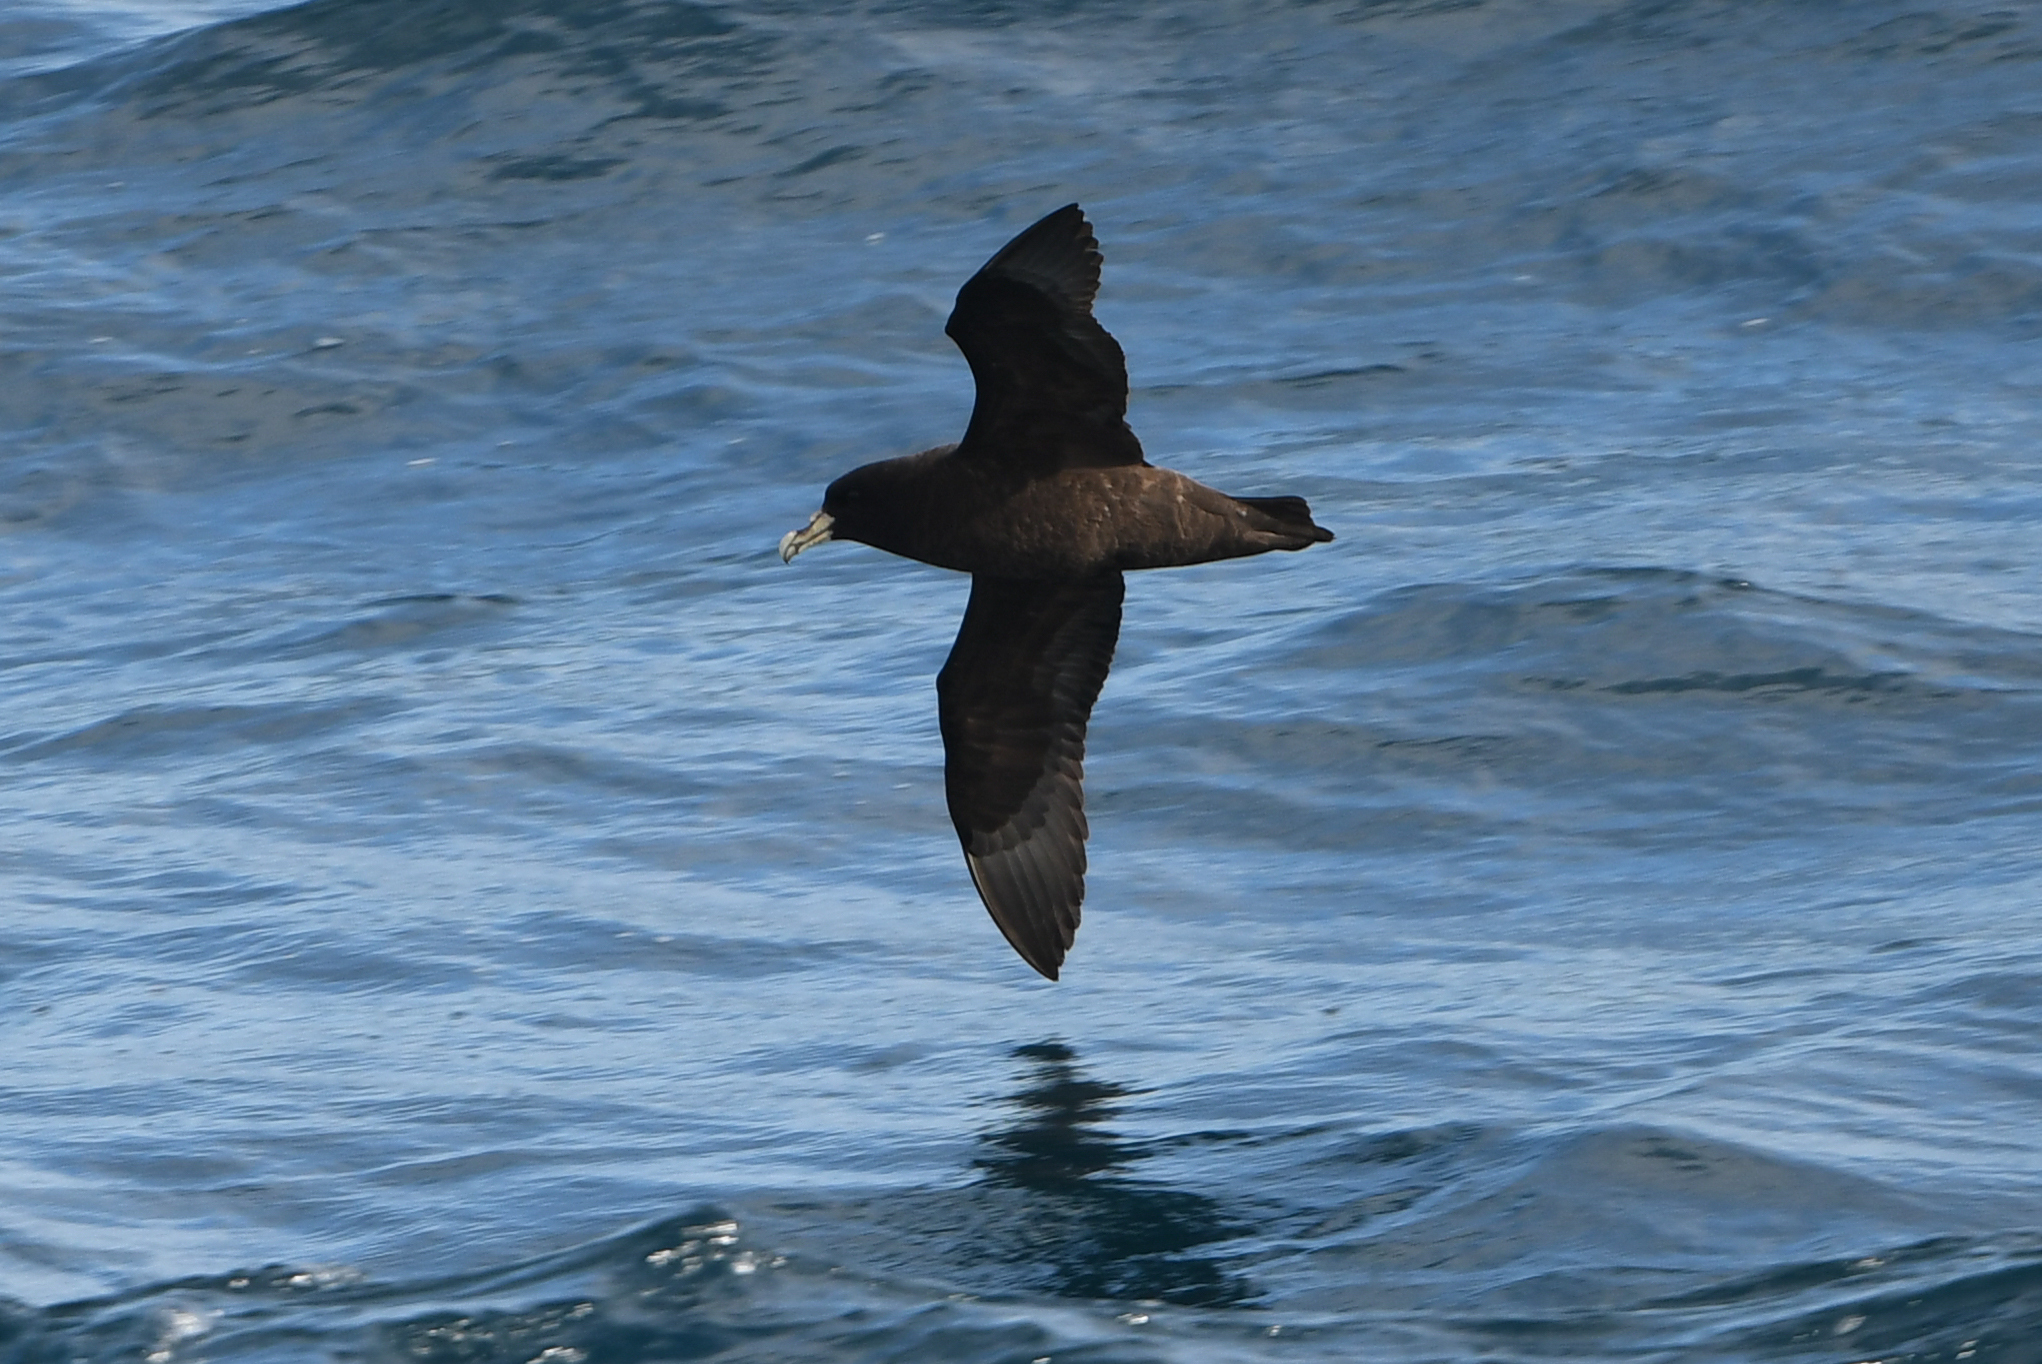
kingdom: Animalia
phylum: Chordata
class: Aves
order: Procellariiformes
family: Procellariidae
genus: Procellaria
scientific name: Procellaria aequinoctialis
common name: White-chinned petrel
